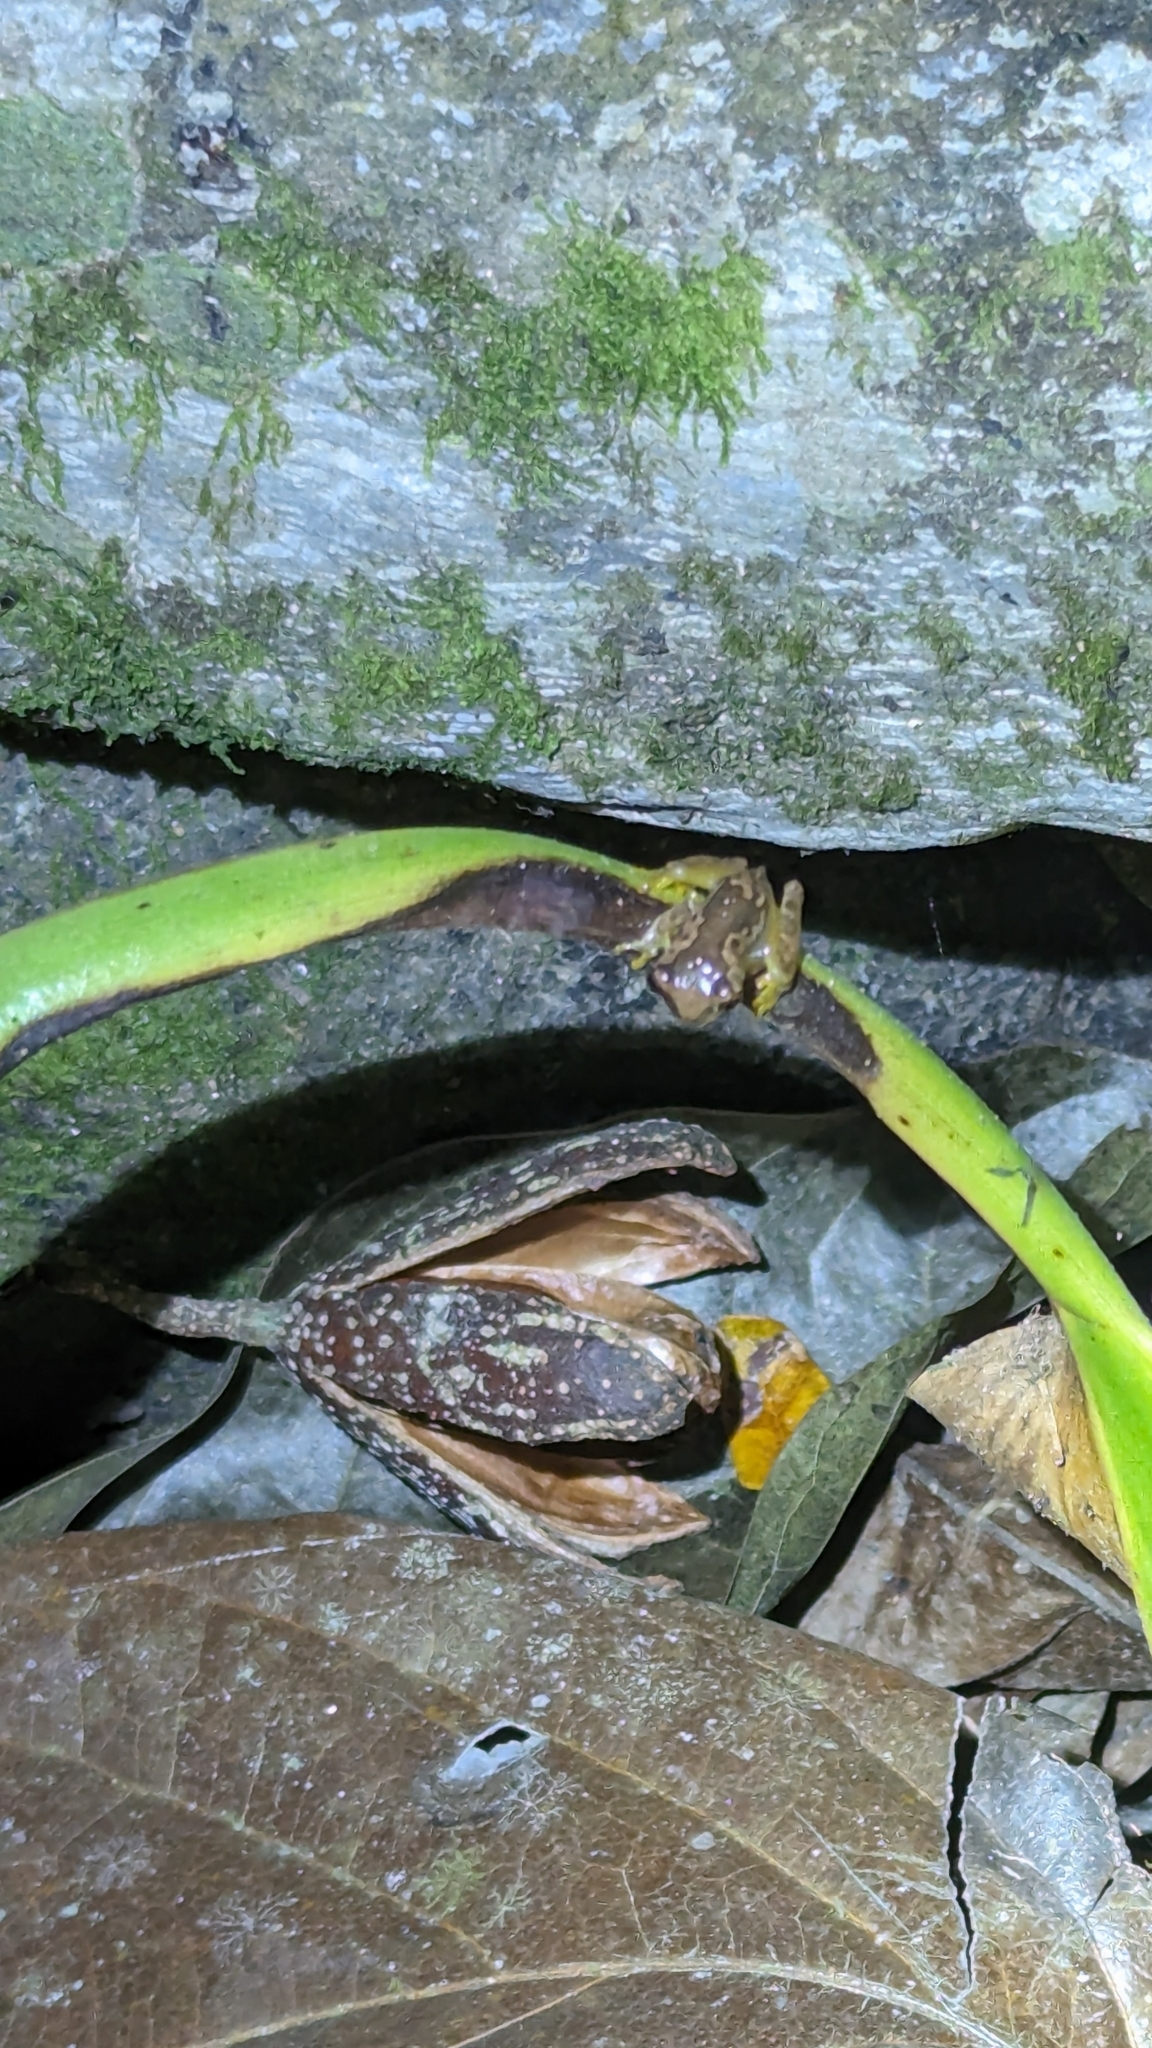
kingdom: Animalia
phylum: Chordata
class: Amphibia
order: Anura
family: Hylidae
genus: Dendropsophus
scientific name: Dendropsophus ebraccatus
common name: Hourglass treefrog
